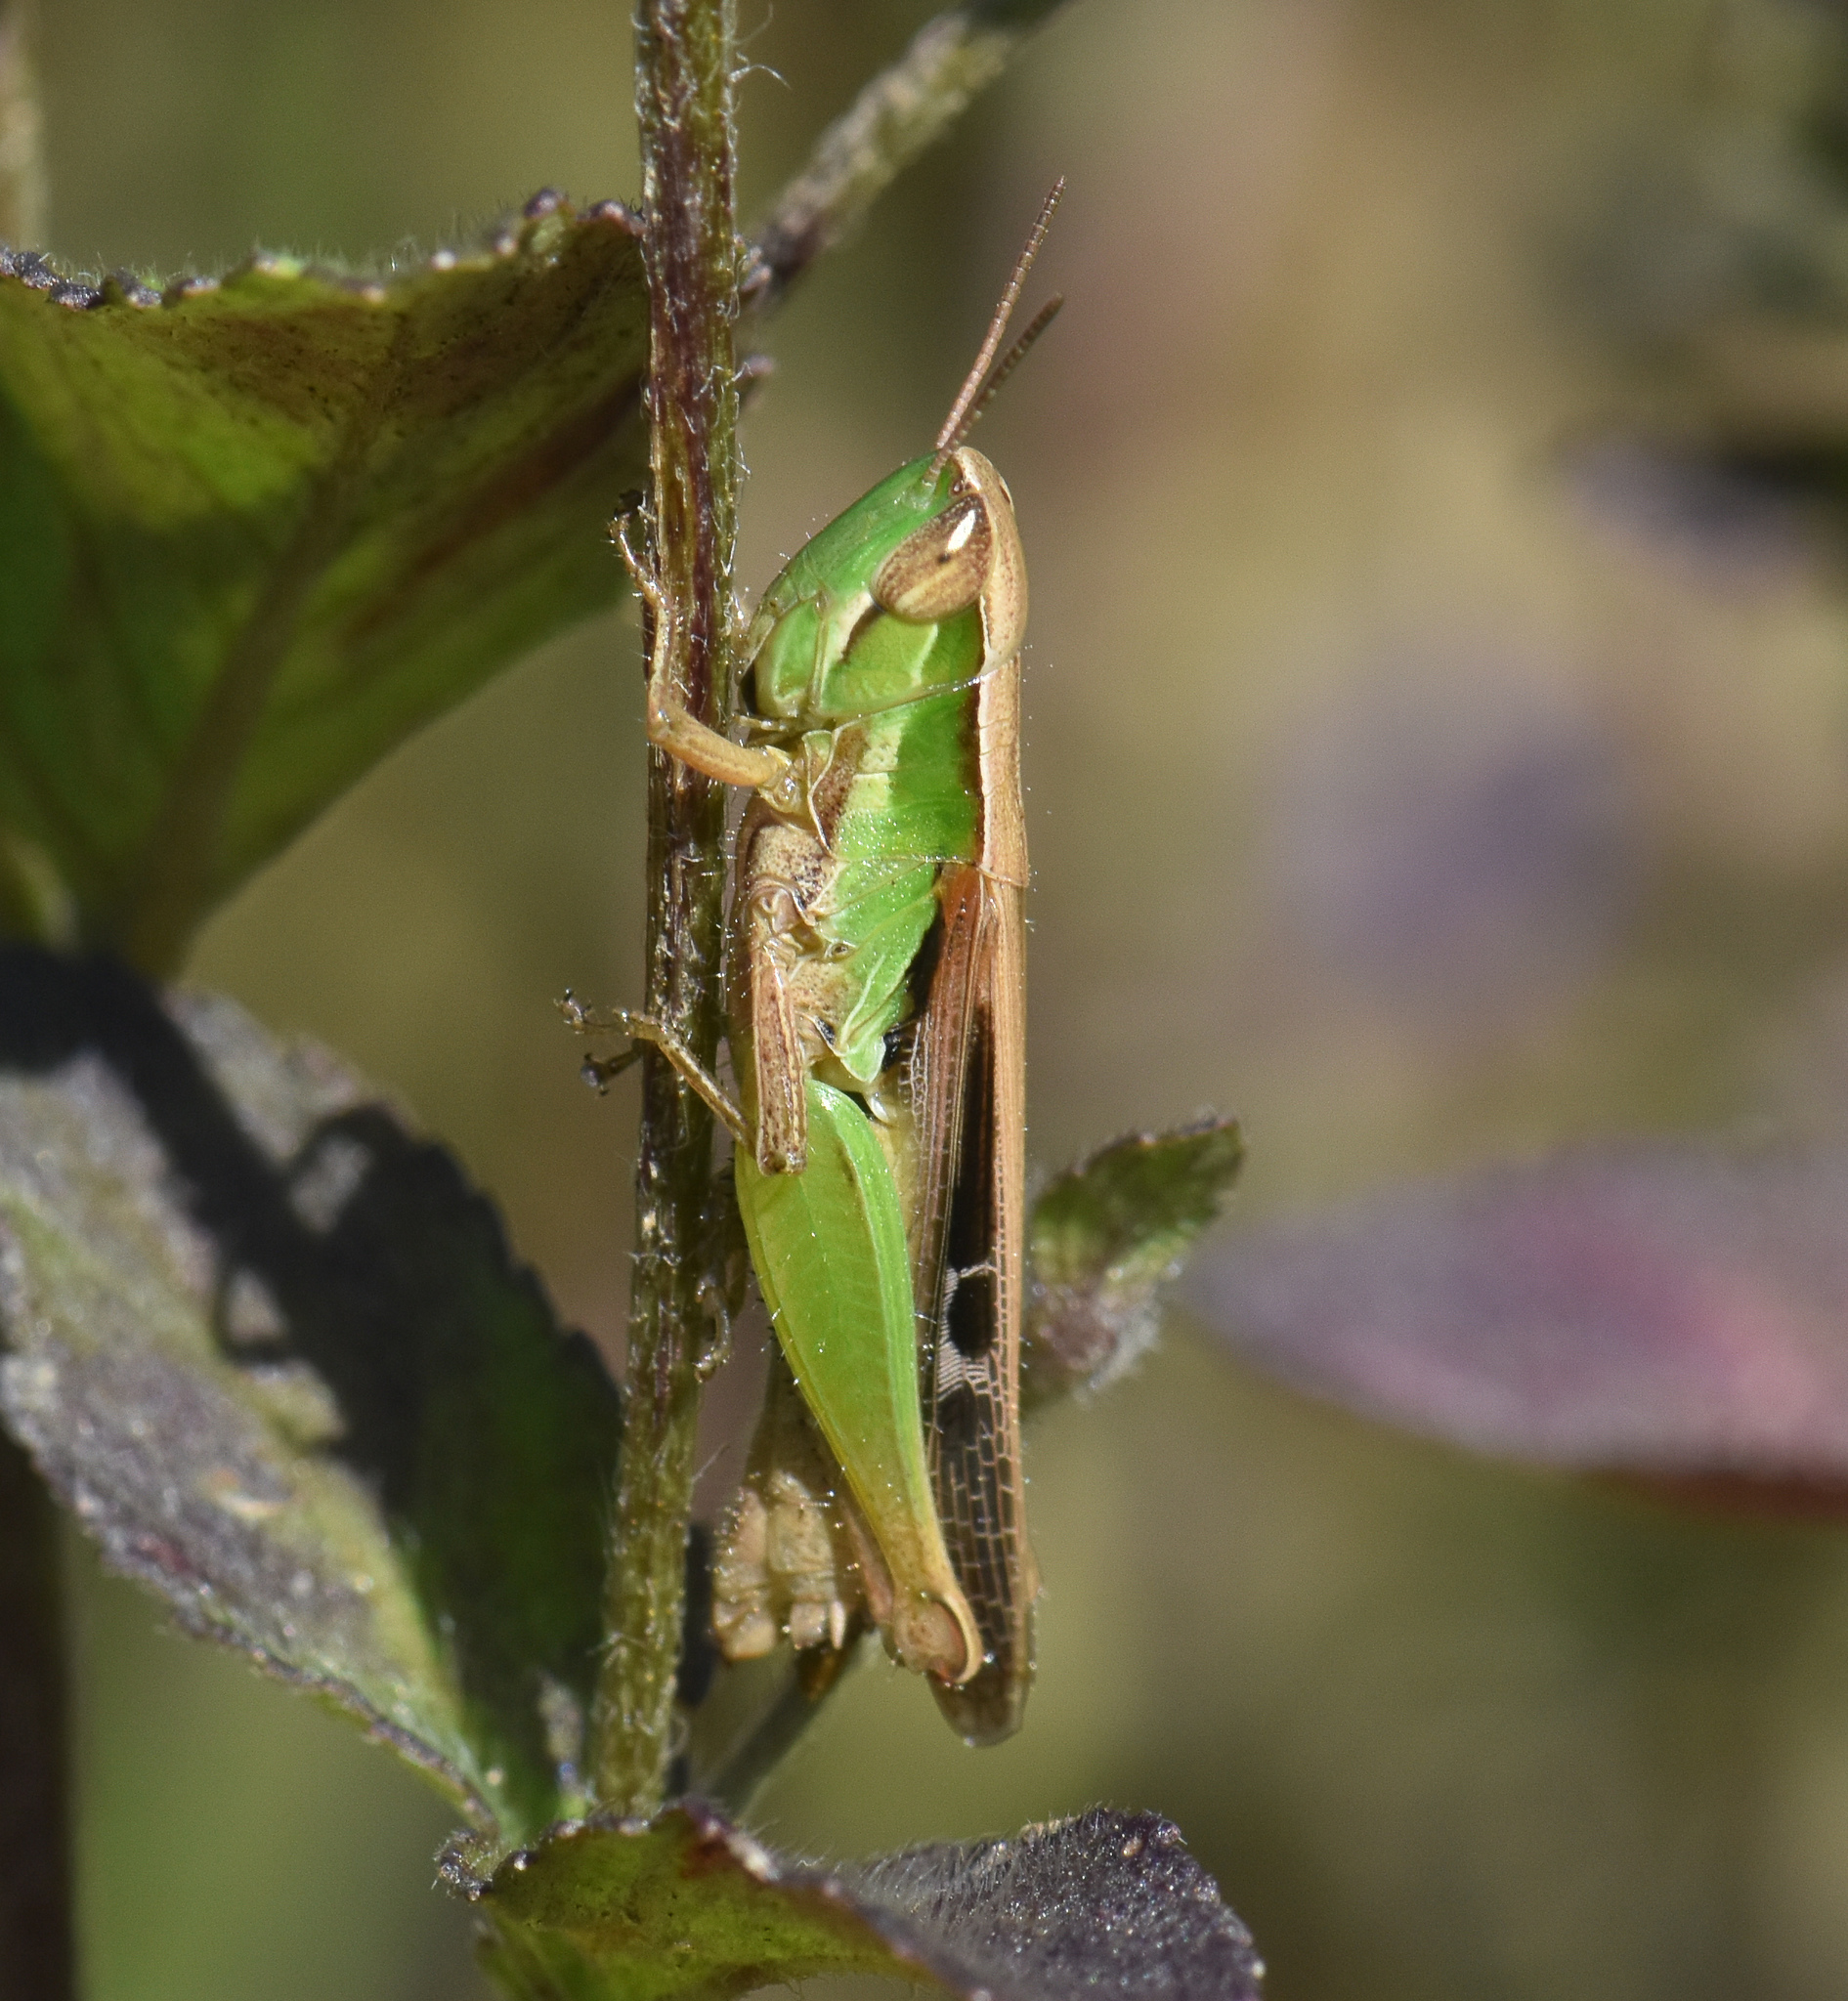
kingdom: Animalia
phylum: Arthropoda
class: Insecta
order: Orthoptera
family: Acrididae
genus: Spathosternum
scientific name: Spathosternum prasiniferum
